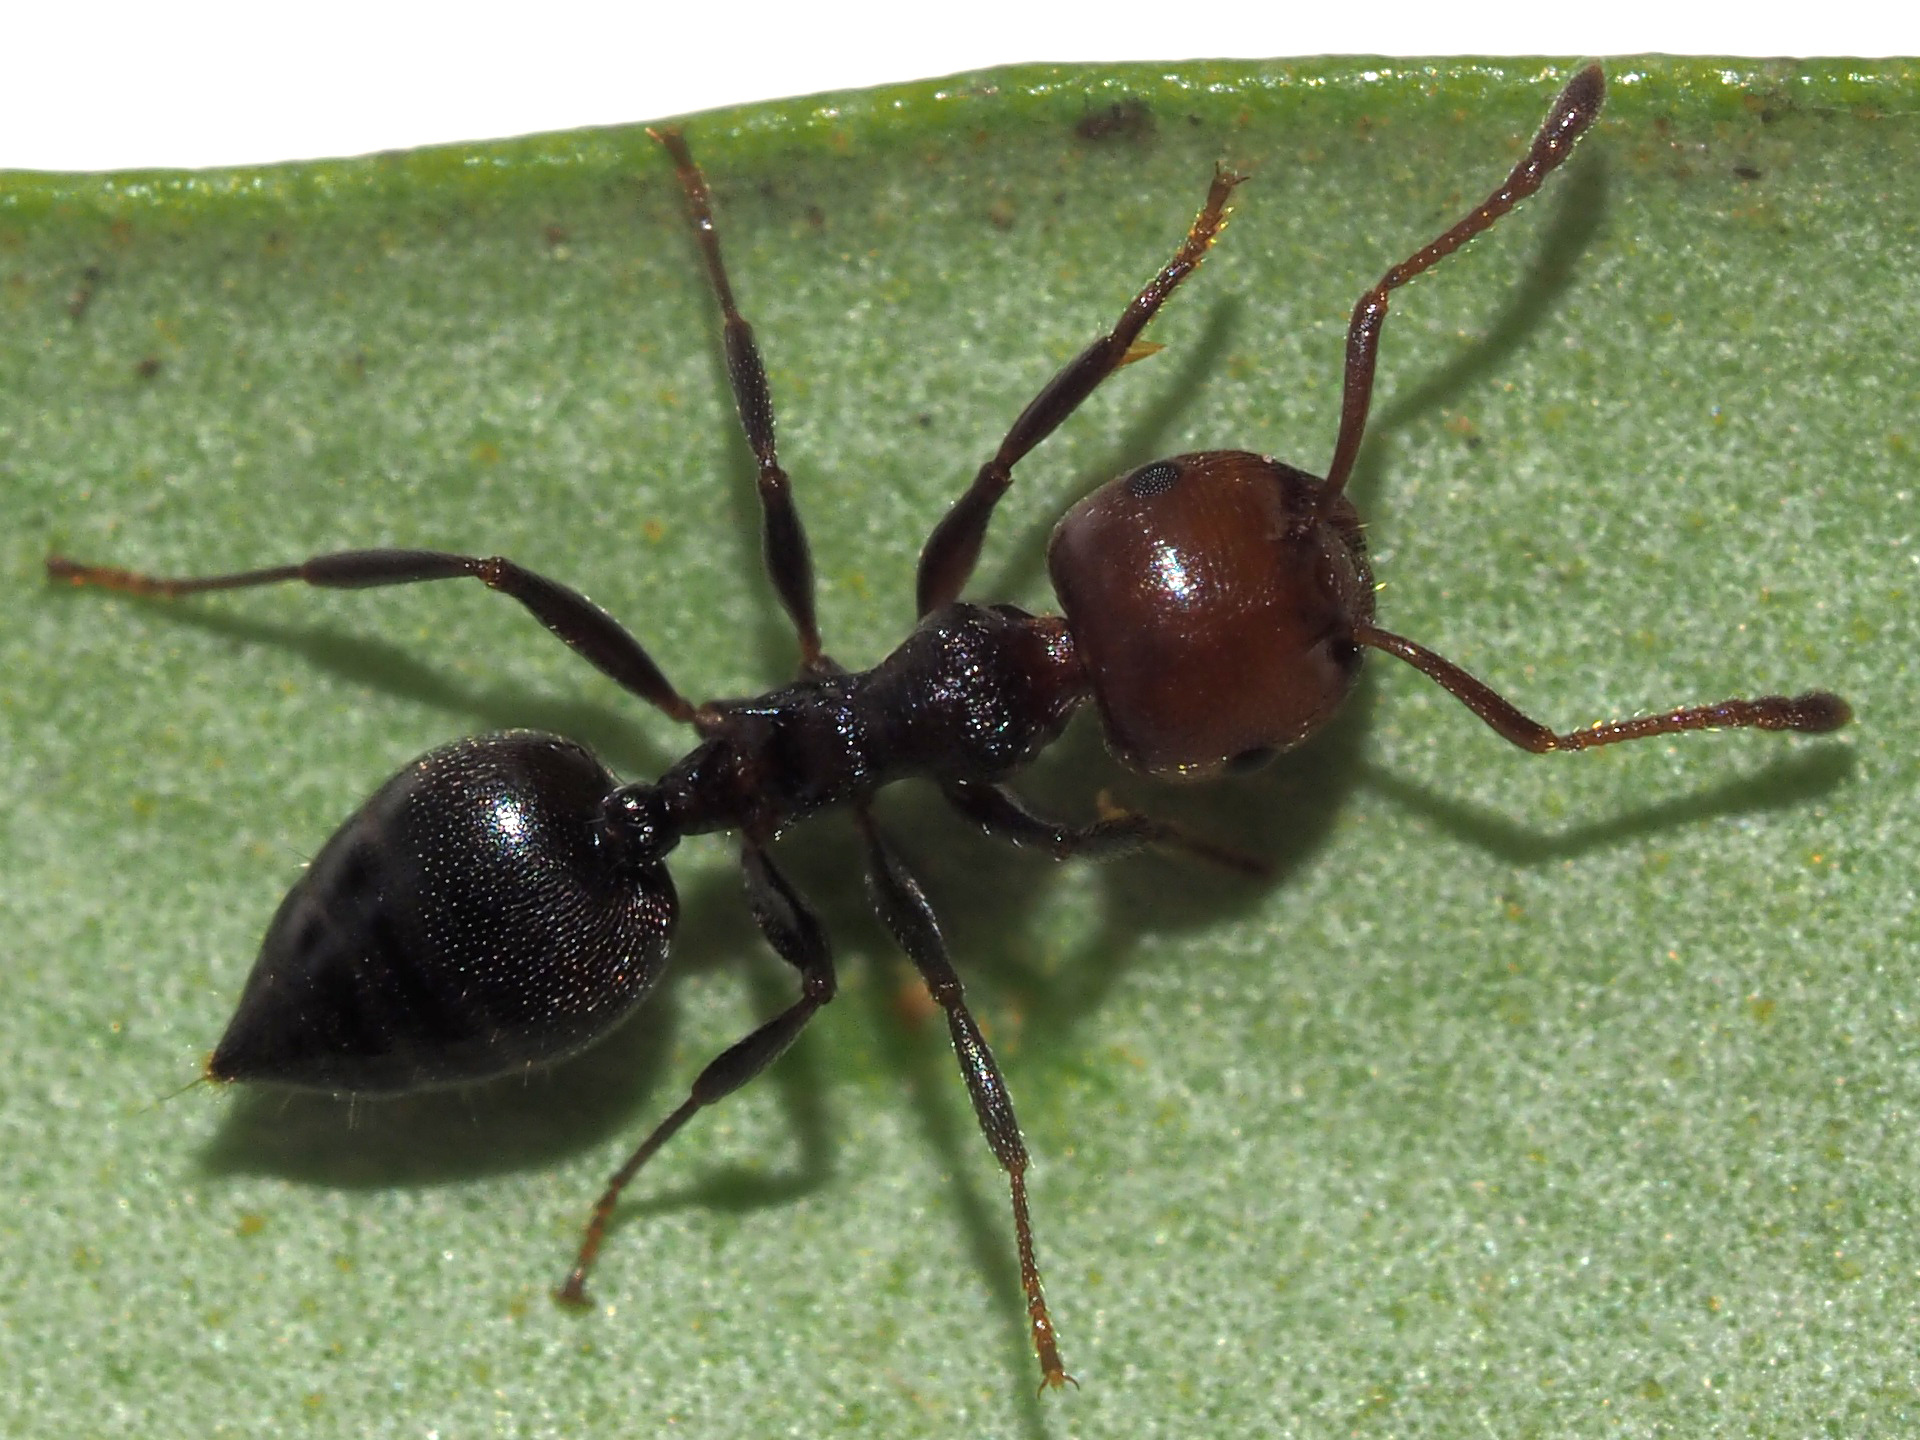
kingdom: Animalia
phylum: Arthropoda
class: Insecta
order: Hymenoptera
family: Formicidae
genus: Crematogaster
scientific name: Crematogaster scutellaris
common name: Fourmi du liège
